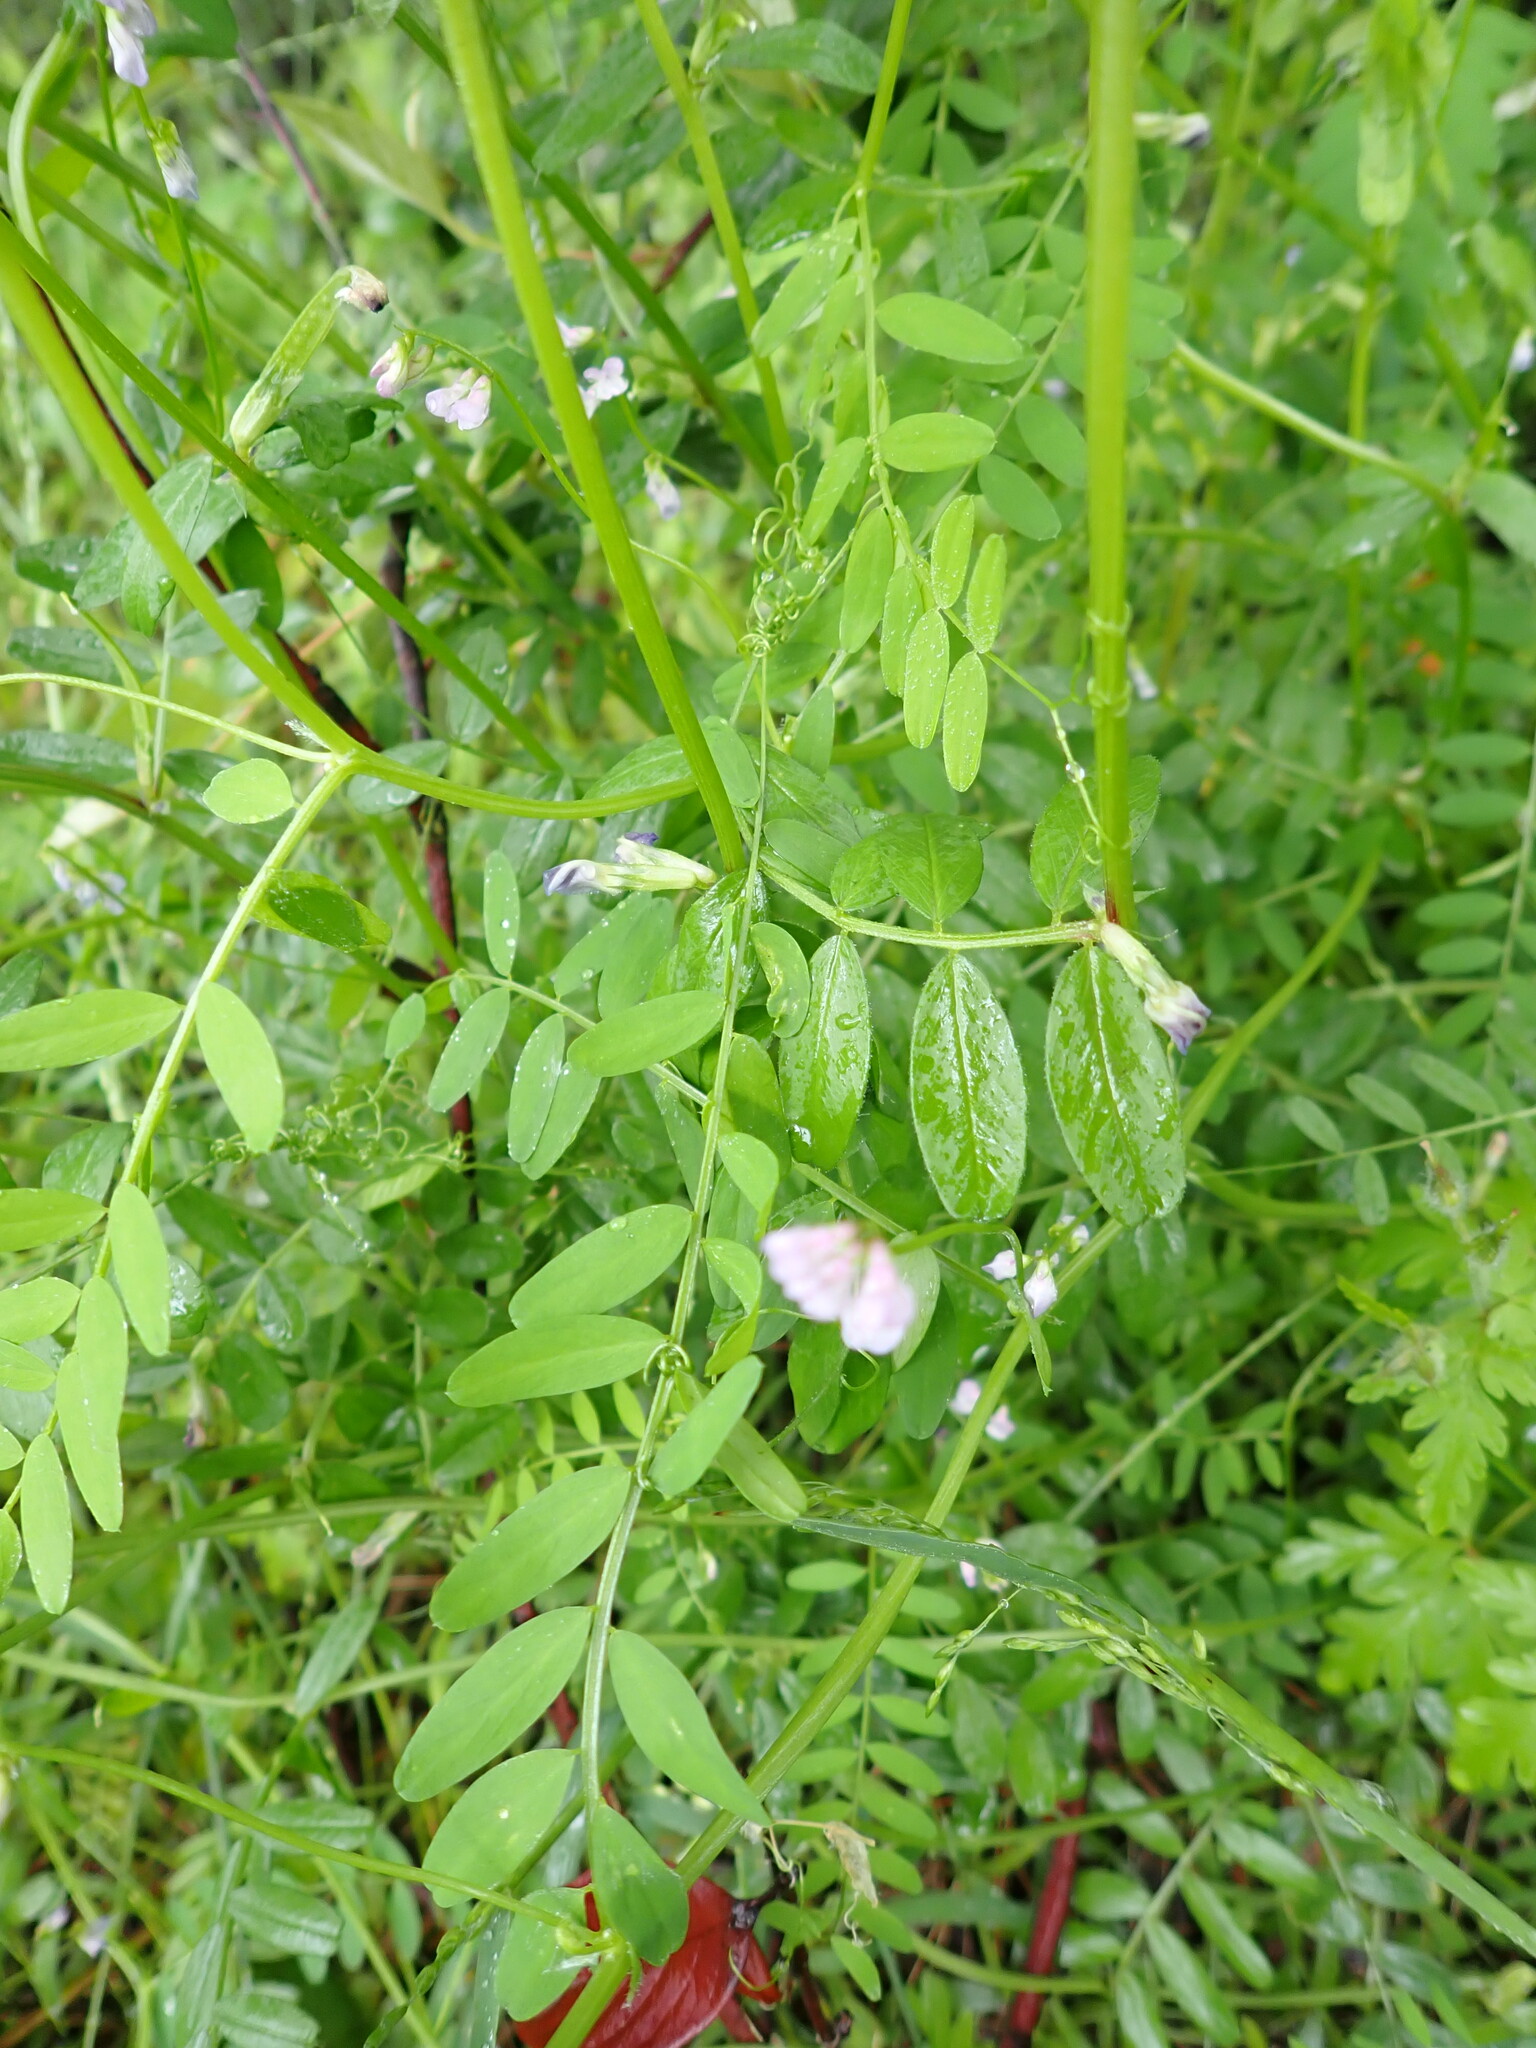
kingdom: Plantae
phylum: Tracheophyta
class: Magnoliopsida
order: Fabales
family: Fabaceae
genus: Vicia
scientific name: Vicia disperma
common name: European vetch
